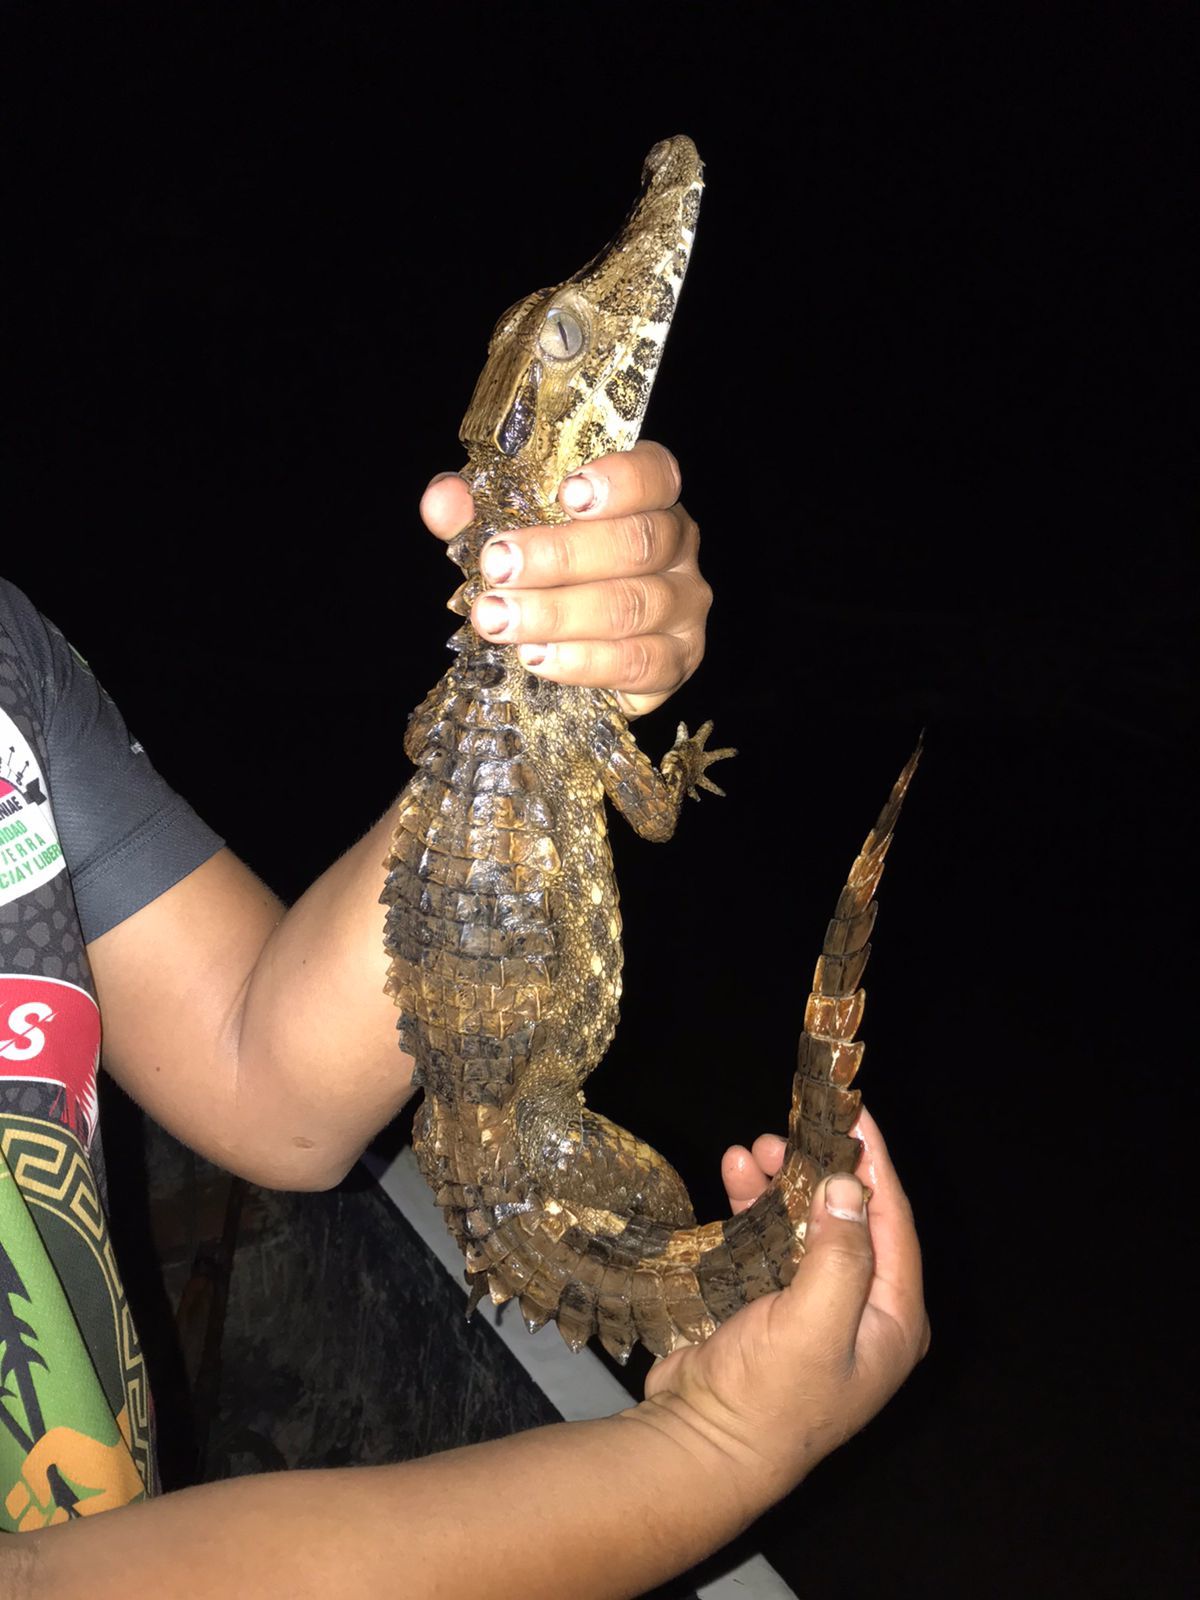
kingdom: Animalia
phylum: Chordata
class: Crocodylia
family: Alligatoridae
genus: Paleosuchus
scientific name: Paleosuchus trigonatus
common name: Schneider's smooth-fronted caiman
